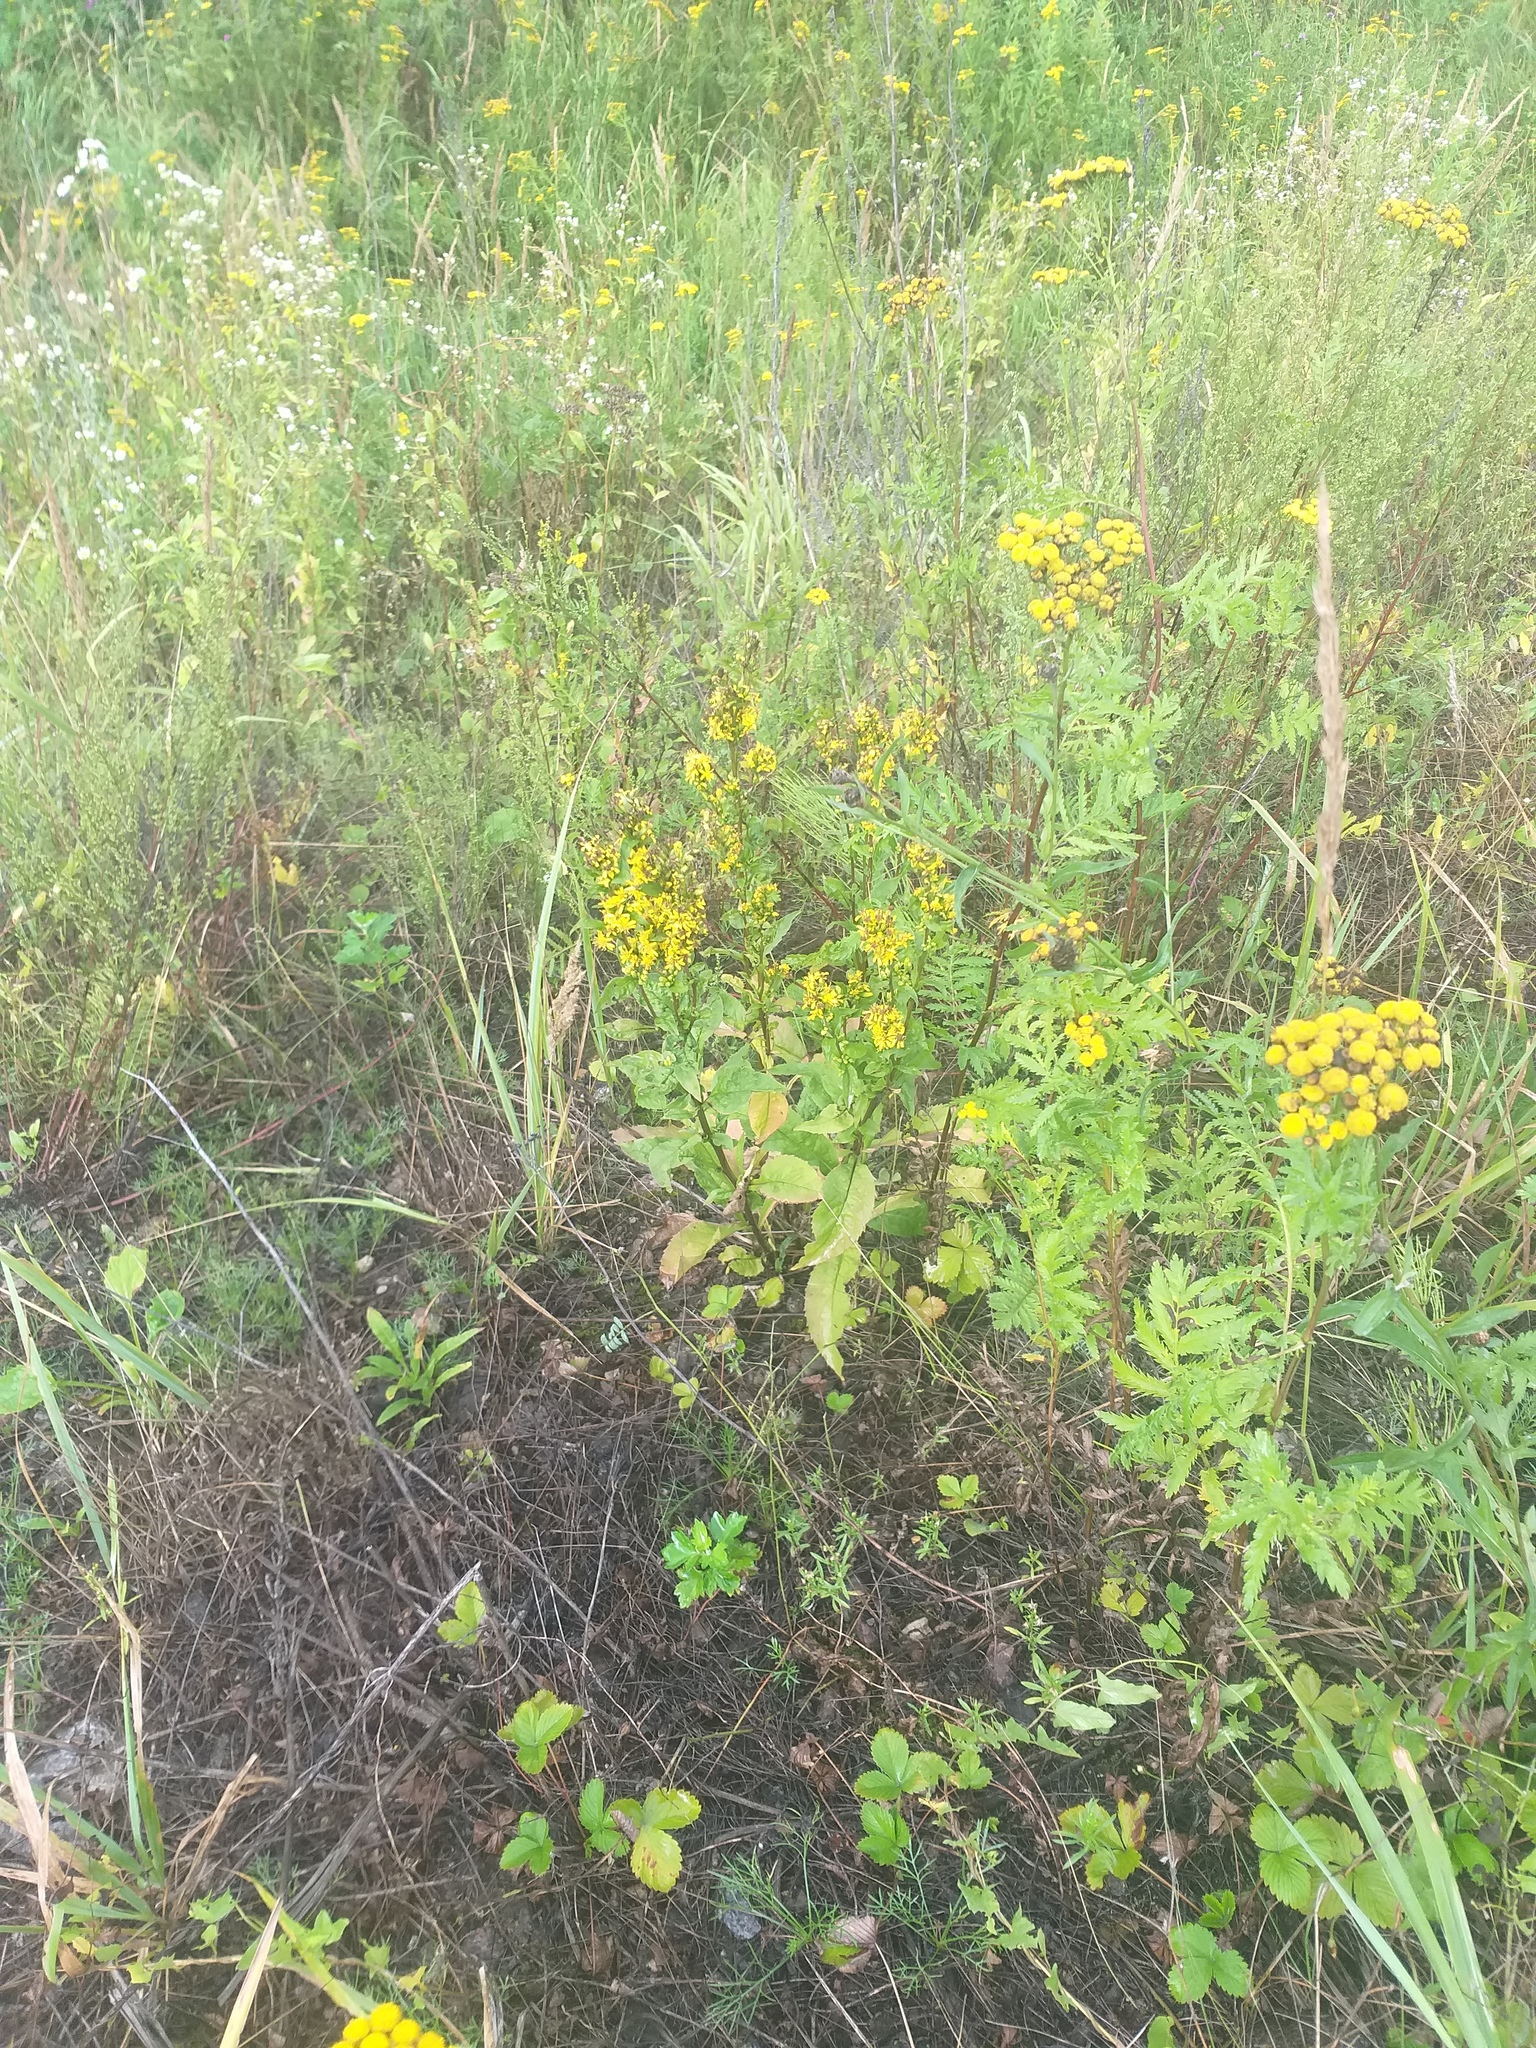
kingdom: Plantae
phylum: Tracheophyta
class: Magnoliopsida
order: Asterales
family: Asteraceae
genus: Solidago
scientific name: Solidago virgaurea
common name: Goldenrod
